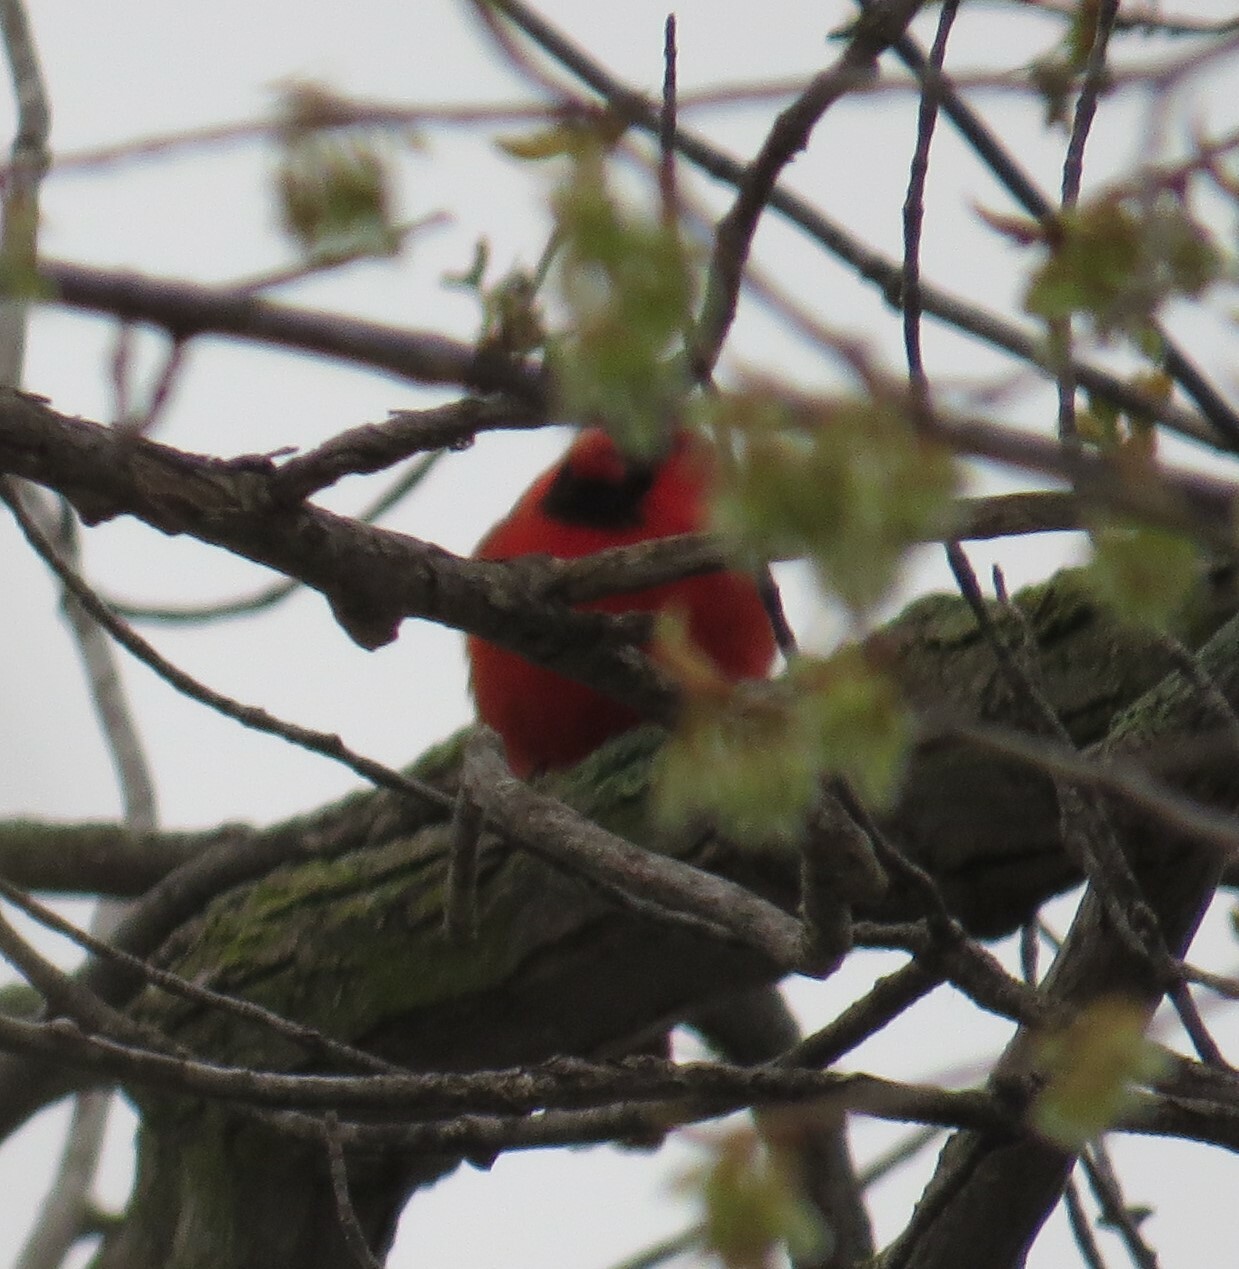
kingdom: Animalia
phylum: Chordata
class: Aves
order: Passeriformes
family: Cardinalidae
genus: Cardinalis
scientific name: Cardinalis cardinalis
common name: Northern cardinal
